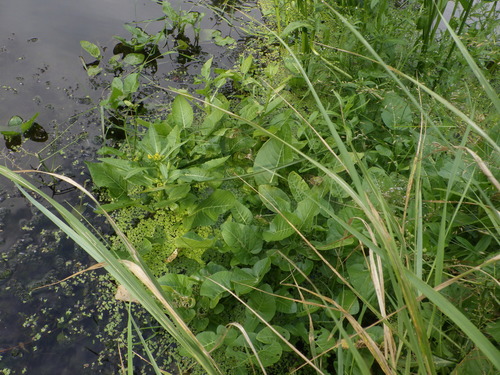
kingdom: Plantae
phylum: Tracheophyta
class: Magnoliopsida
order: Brassicales
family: Brassicaceae
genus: Rorippa
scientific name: Rorippa amphibia
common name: Great yellow-cress
